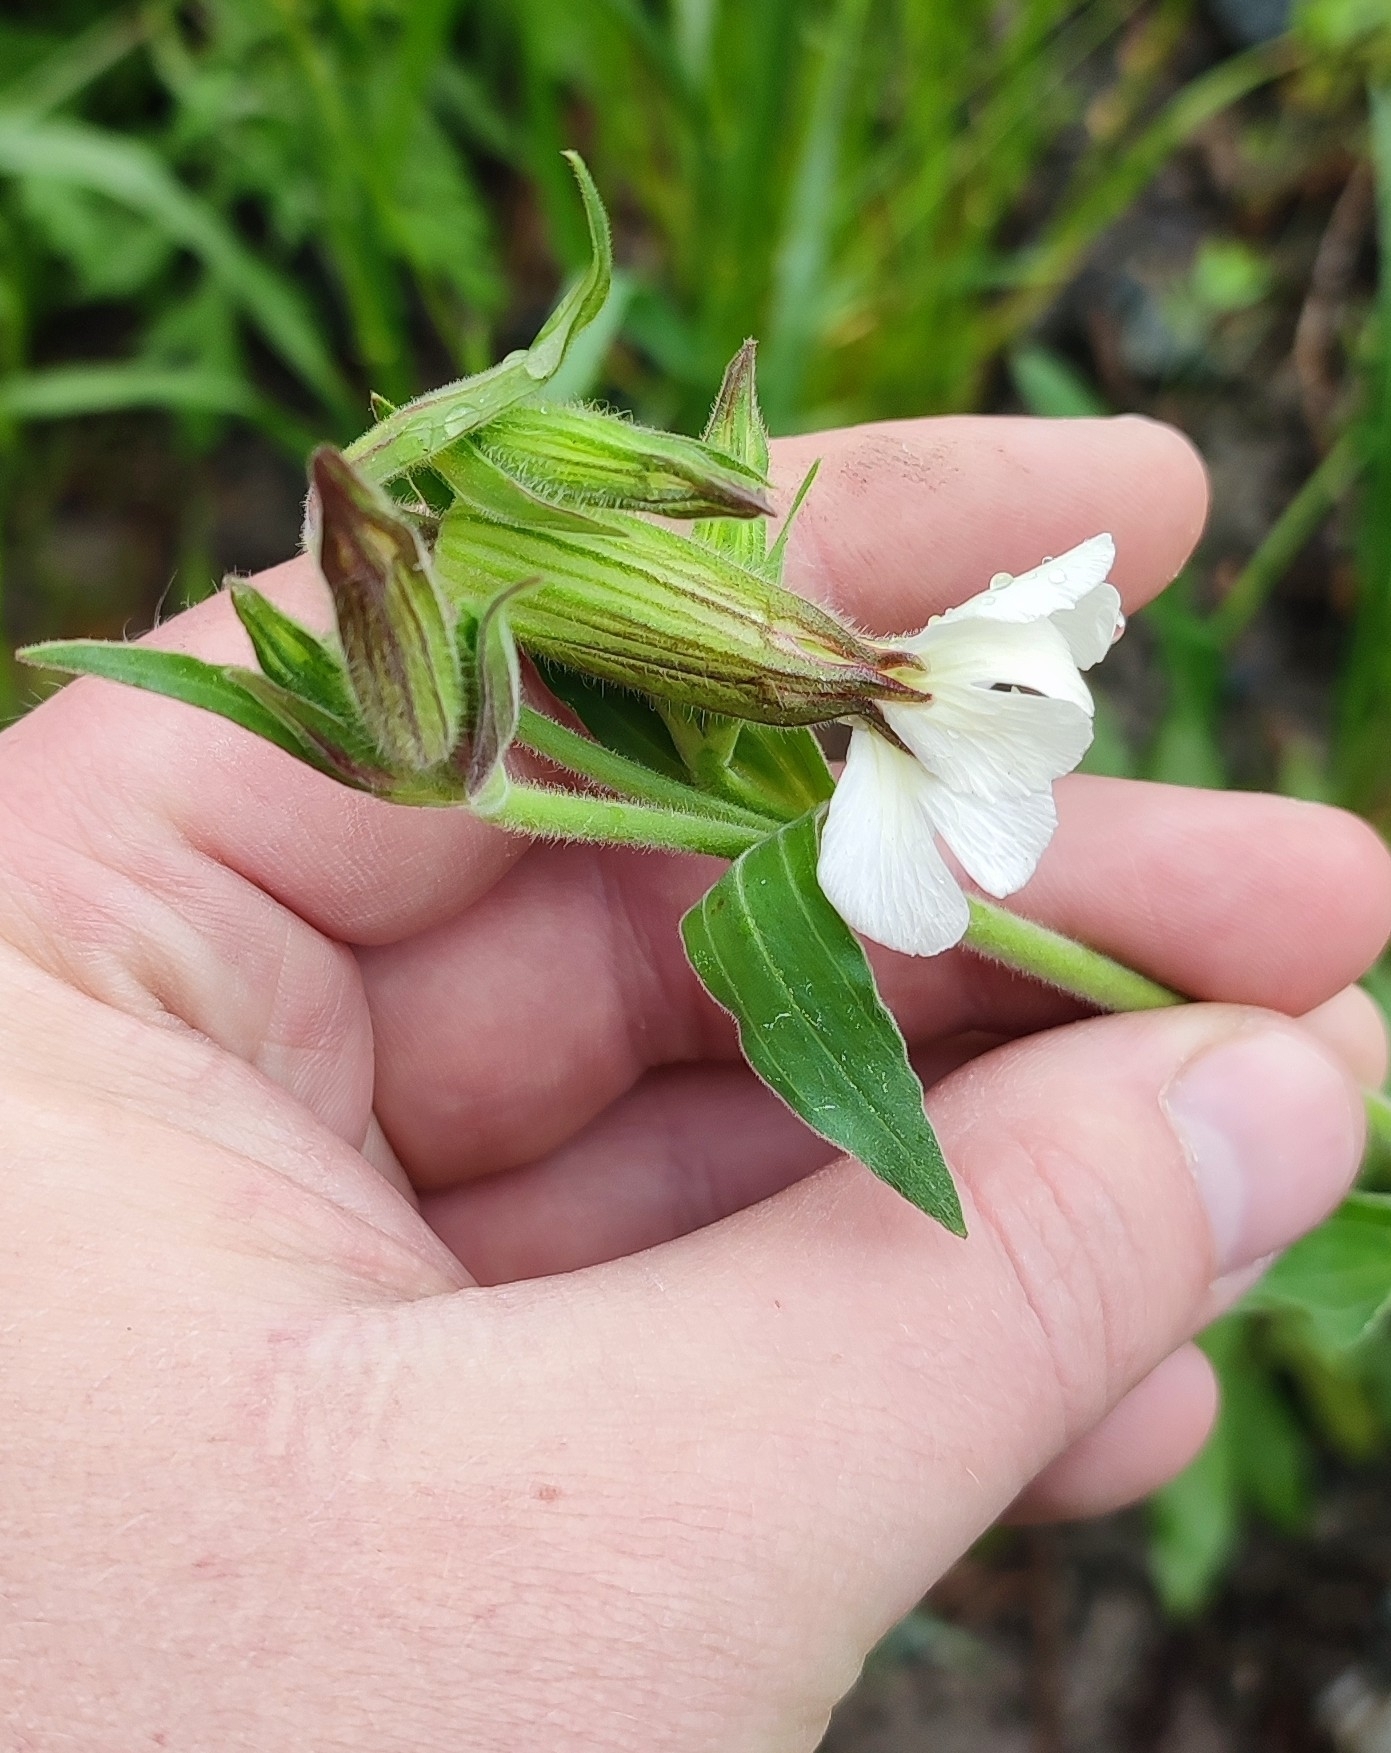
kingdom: Plantae
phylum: Tracheophyta
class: Magnoliopsida
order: Caryophyllales
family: Caryophyllaceae
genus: Silene
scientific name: Silene latifolia
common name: White campion
